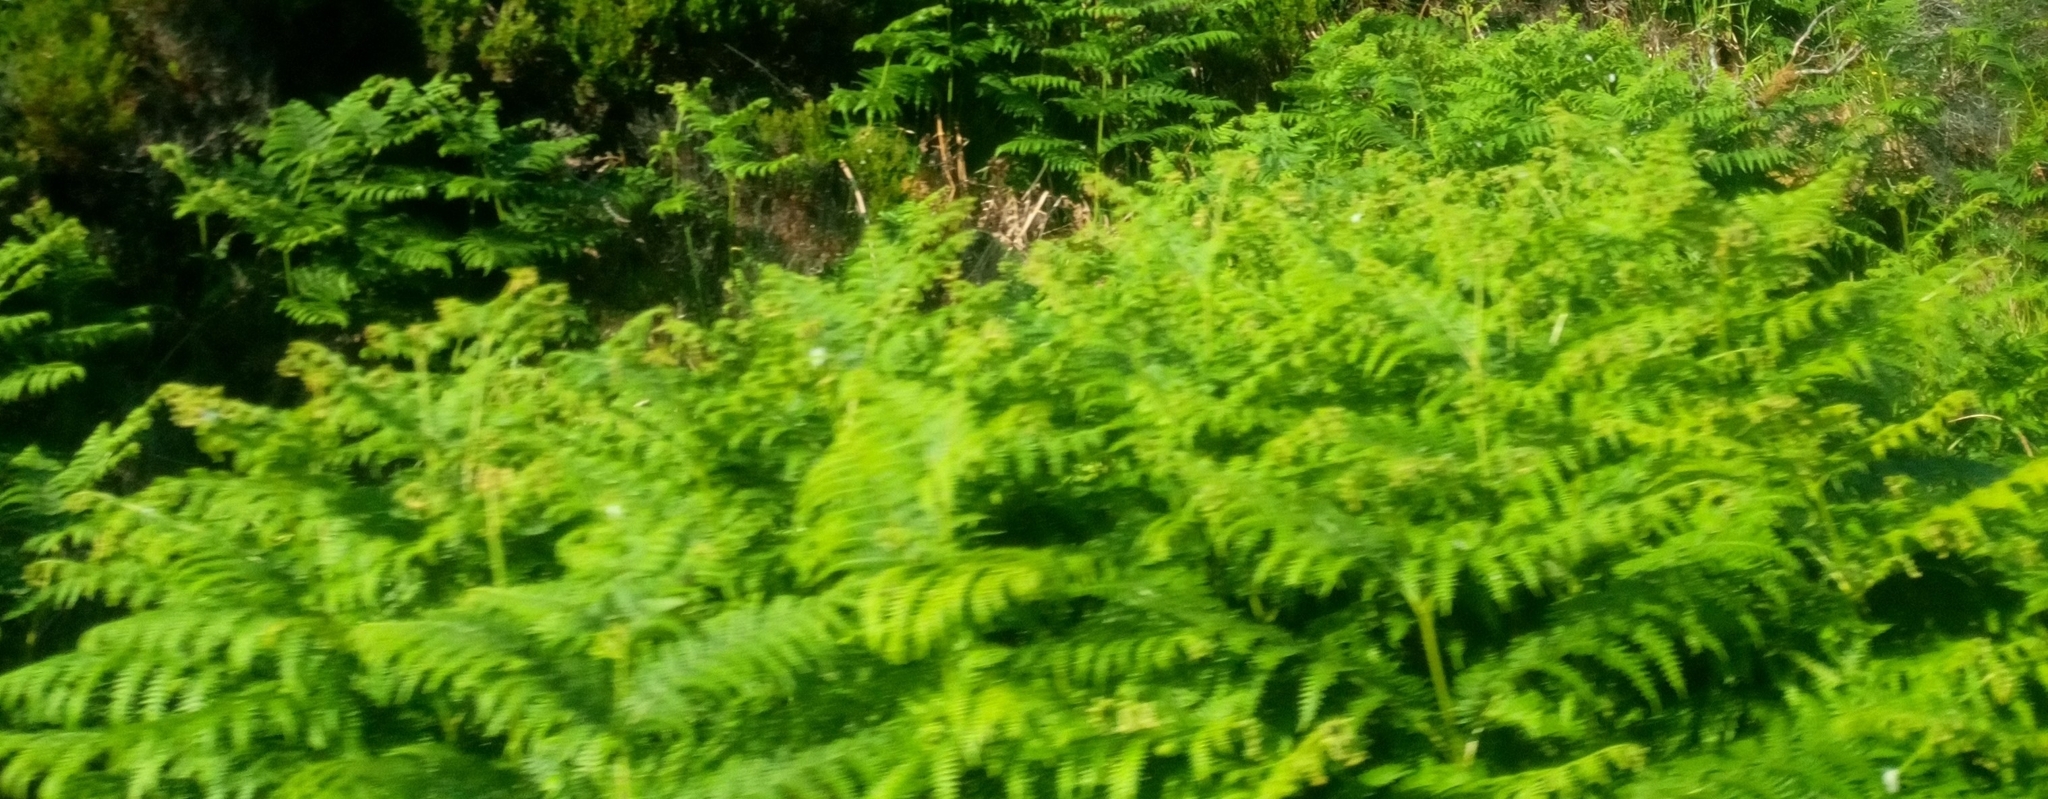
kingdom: Plantae
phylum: Tracheophyta
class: Polypodiopsida
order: Polypodiales
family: Dennstaedtiaceae
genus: Pteridium
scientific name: Pteridium aquilinum
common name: Bracken
